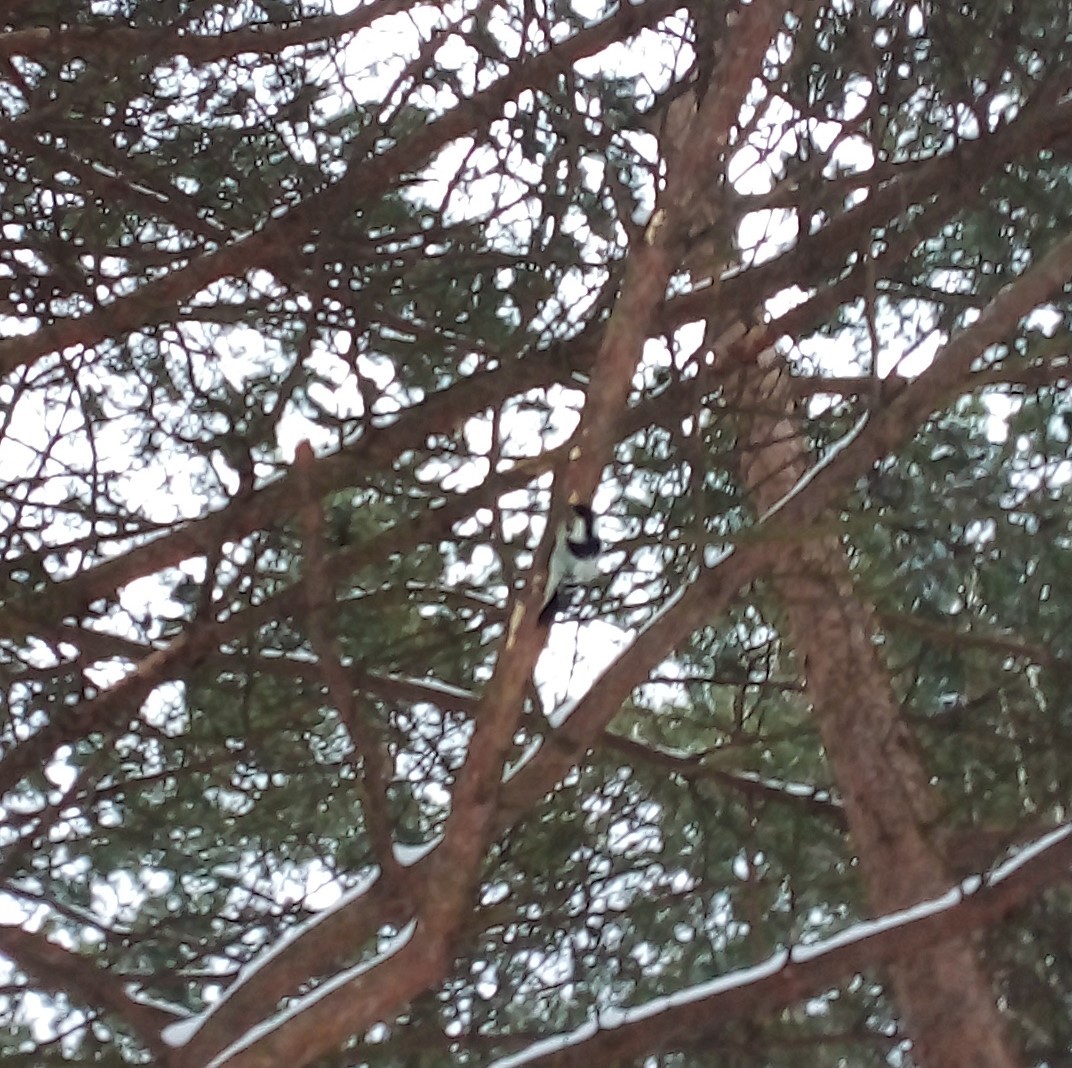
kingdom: Animalia
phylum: Chordata
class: Aves
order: Piciformes
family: Picidae
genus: Dryobates
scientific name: Dryobates minor
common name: Lesser spotted woodpecker
